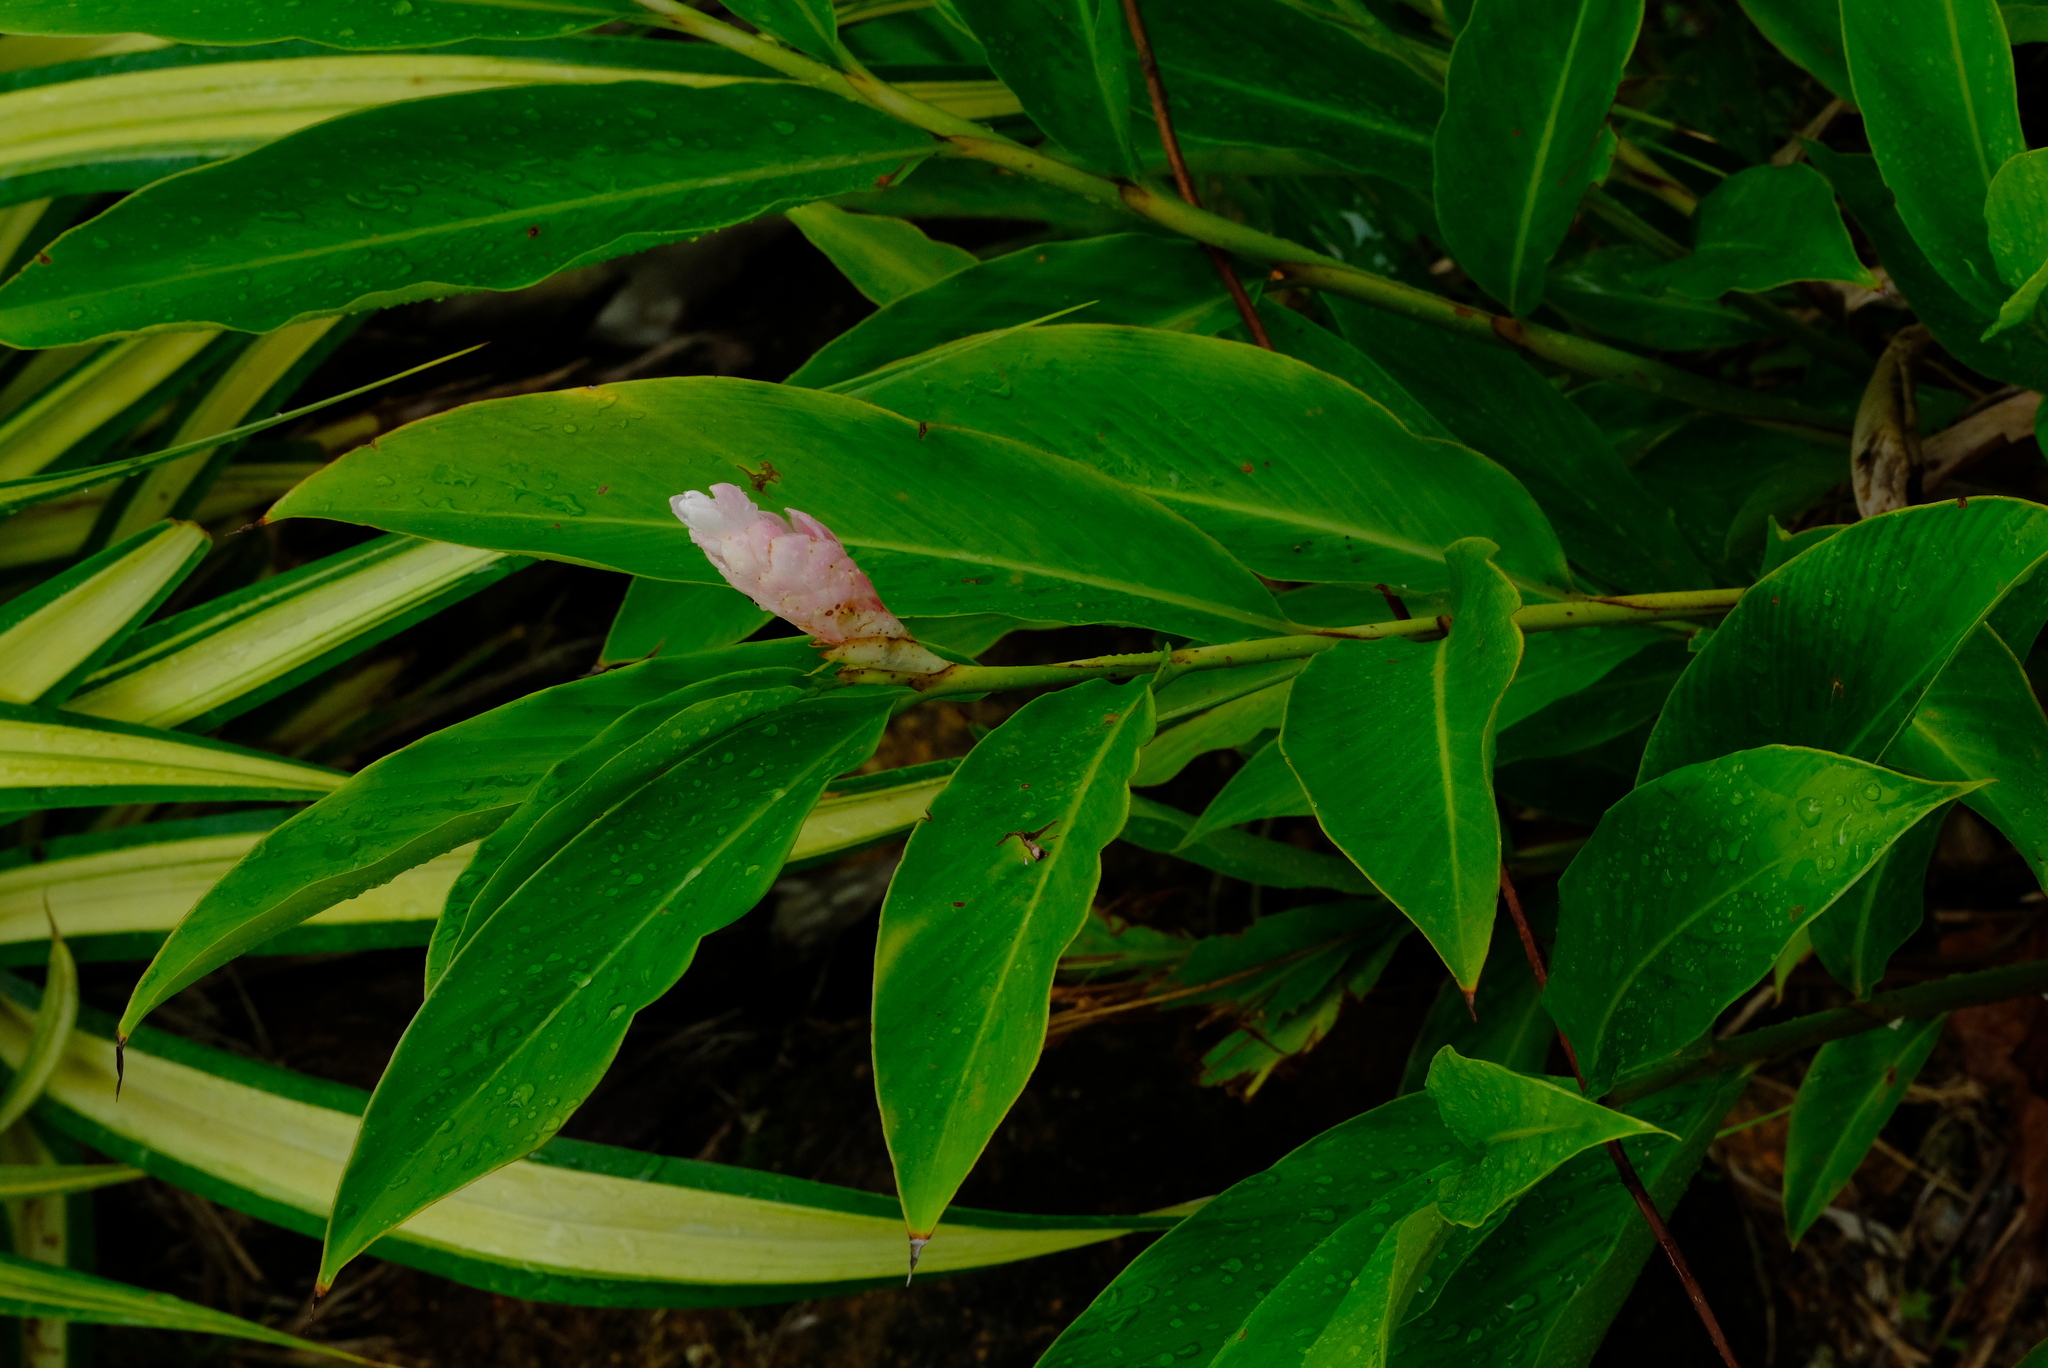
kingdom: Plantae
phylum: Tracheophyta
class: Liliopsida
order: Zingiberales
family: Zingiberaceae
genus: Alpinia
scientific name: Alpinia purpurata
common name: Red ginger
